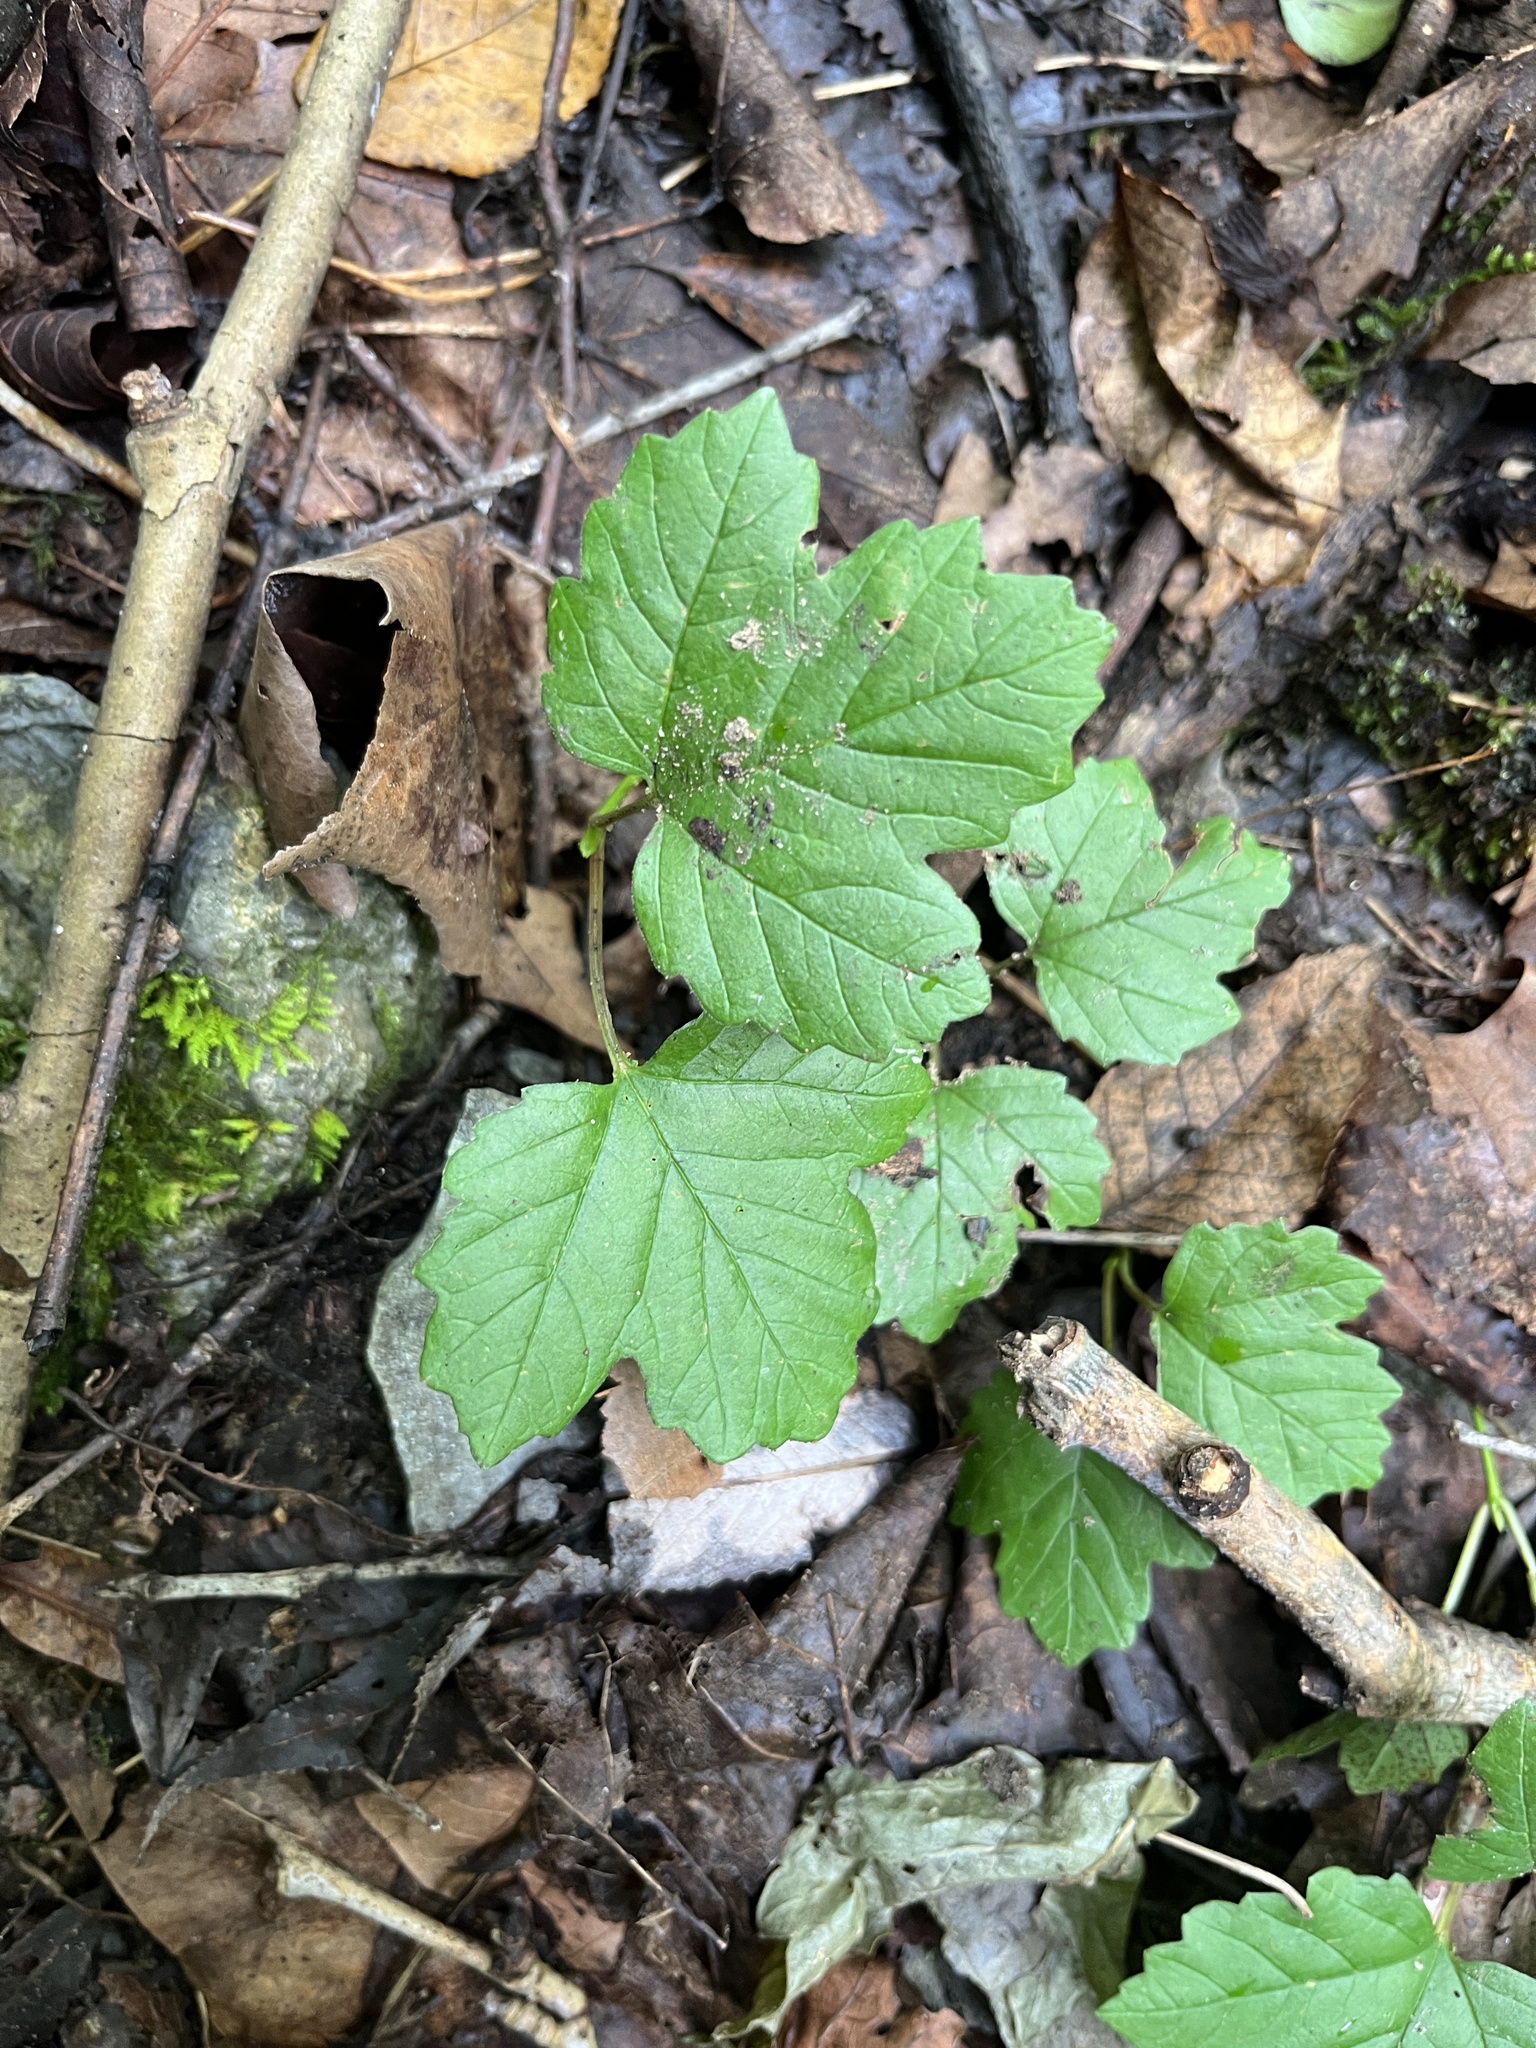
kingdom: Plantae
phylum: Tracheophyta
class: Magnoliopsida
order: Dipsacales
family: Viburnaceae
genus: Viburnum
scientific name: Viburnum acerifolium
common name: Dockmackie
